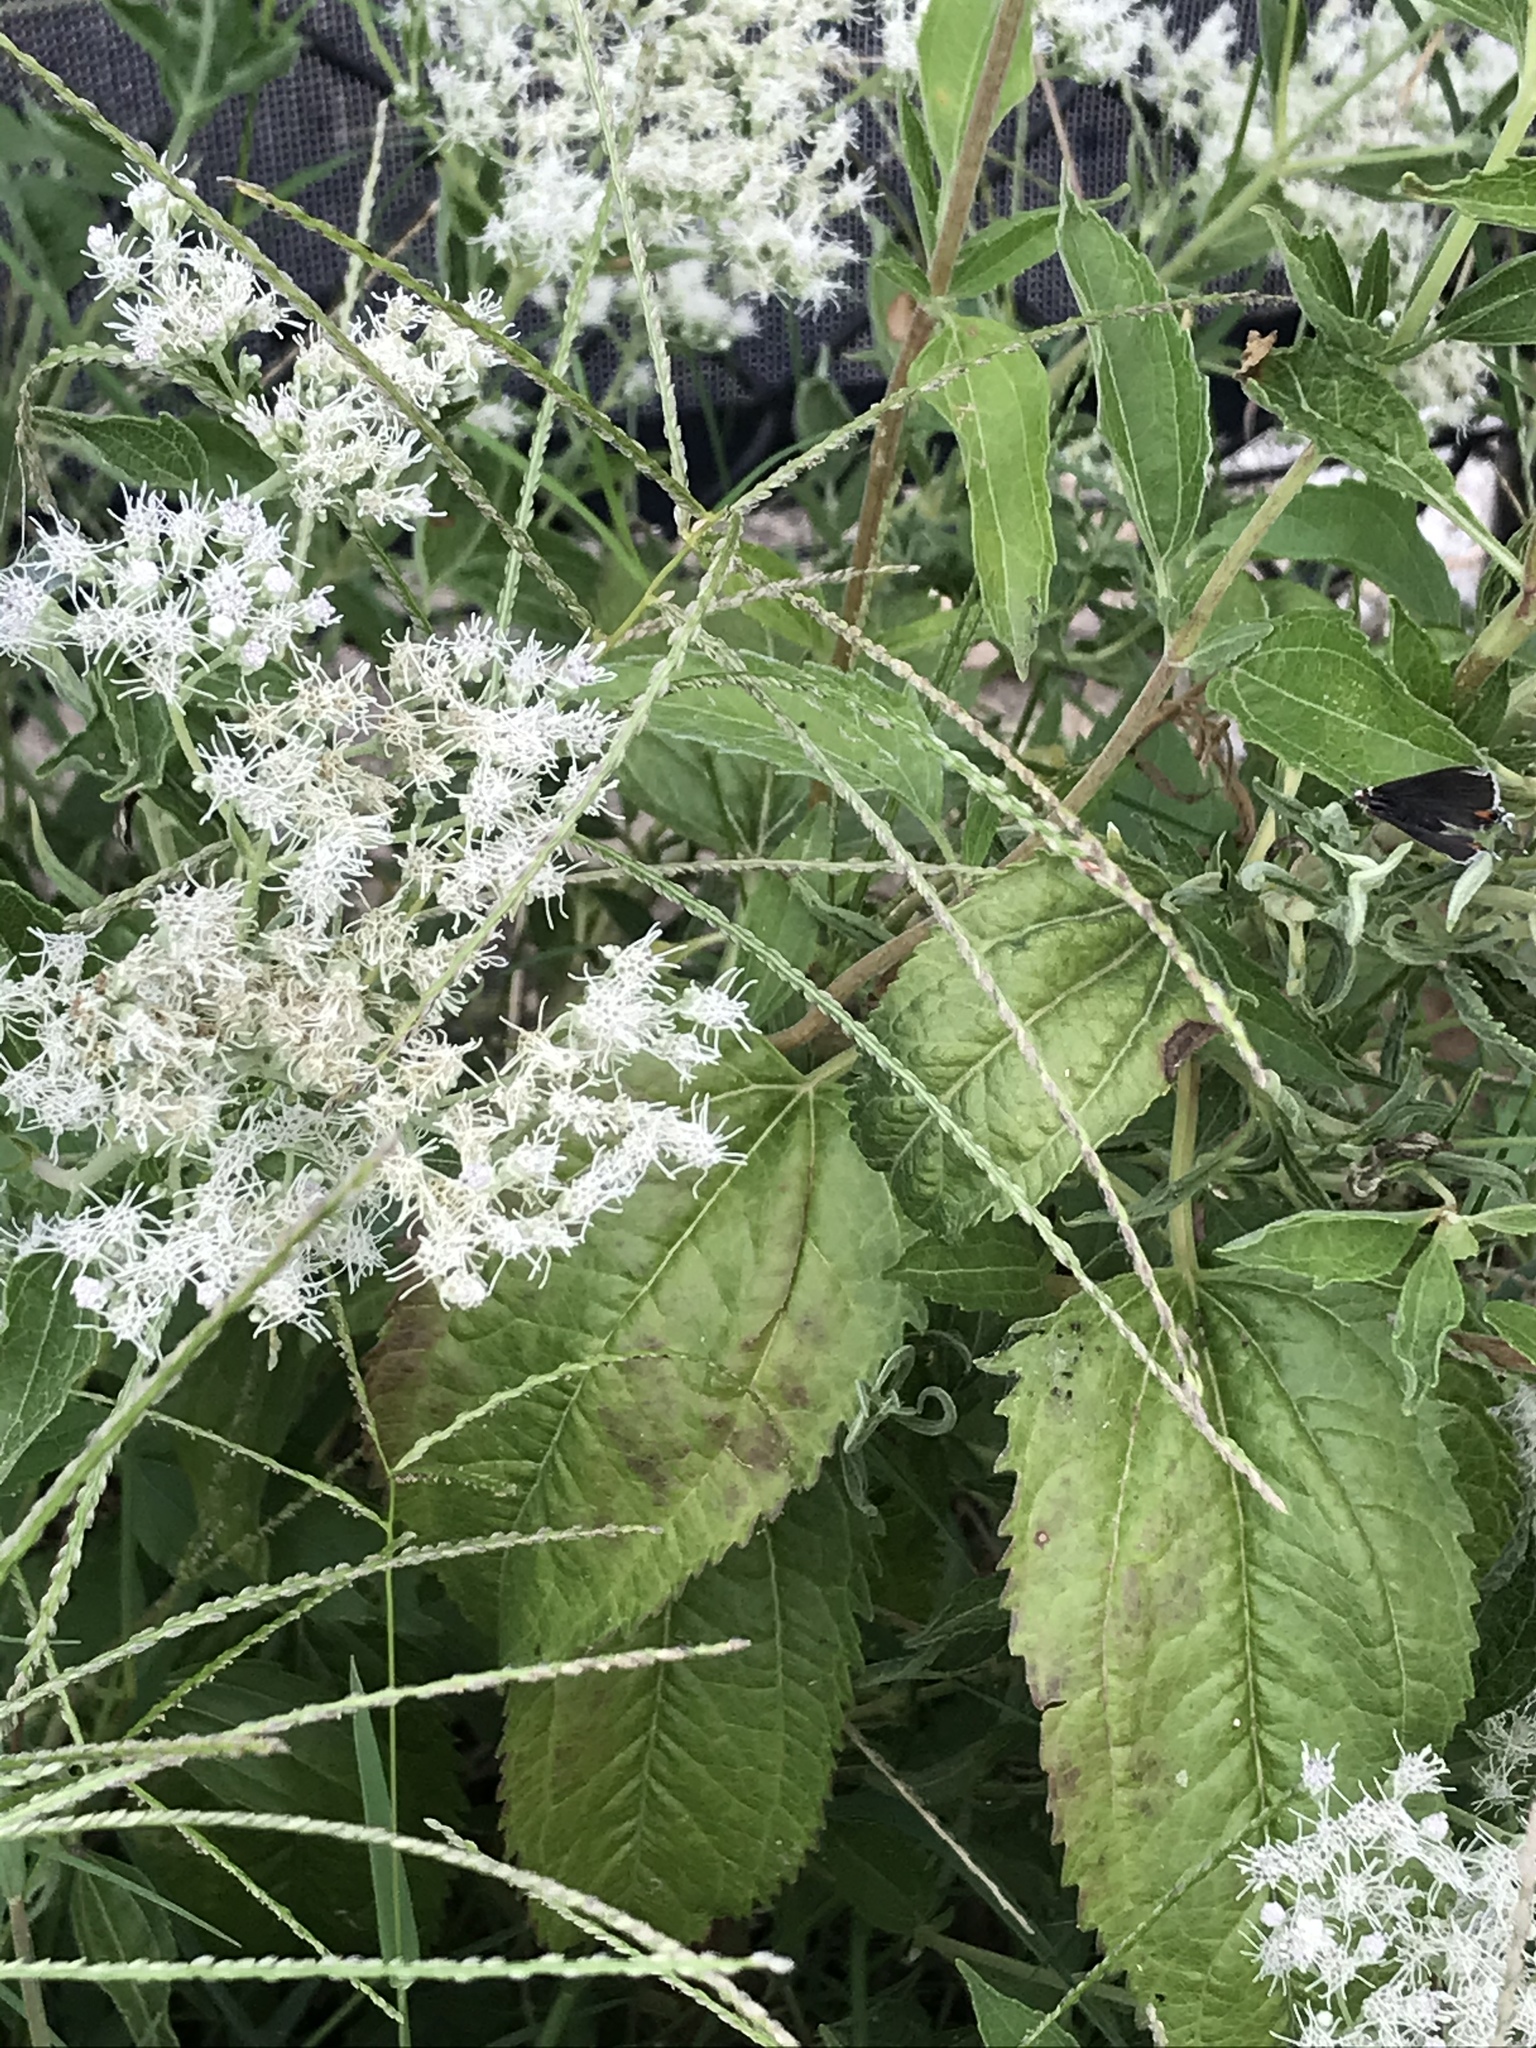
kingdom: Plantae
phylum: Tracheophyta
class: Magnoliopsida
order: Asterales
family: Asteraceae
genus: Eupatorium
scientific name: Eupatorium serotinum
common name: Late boneset
